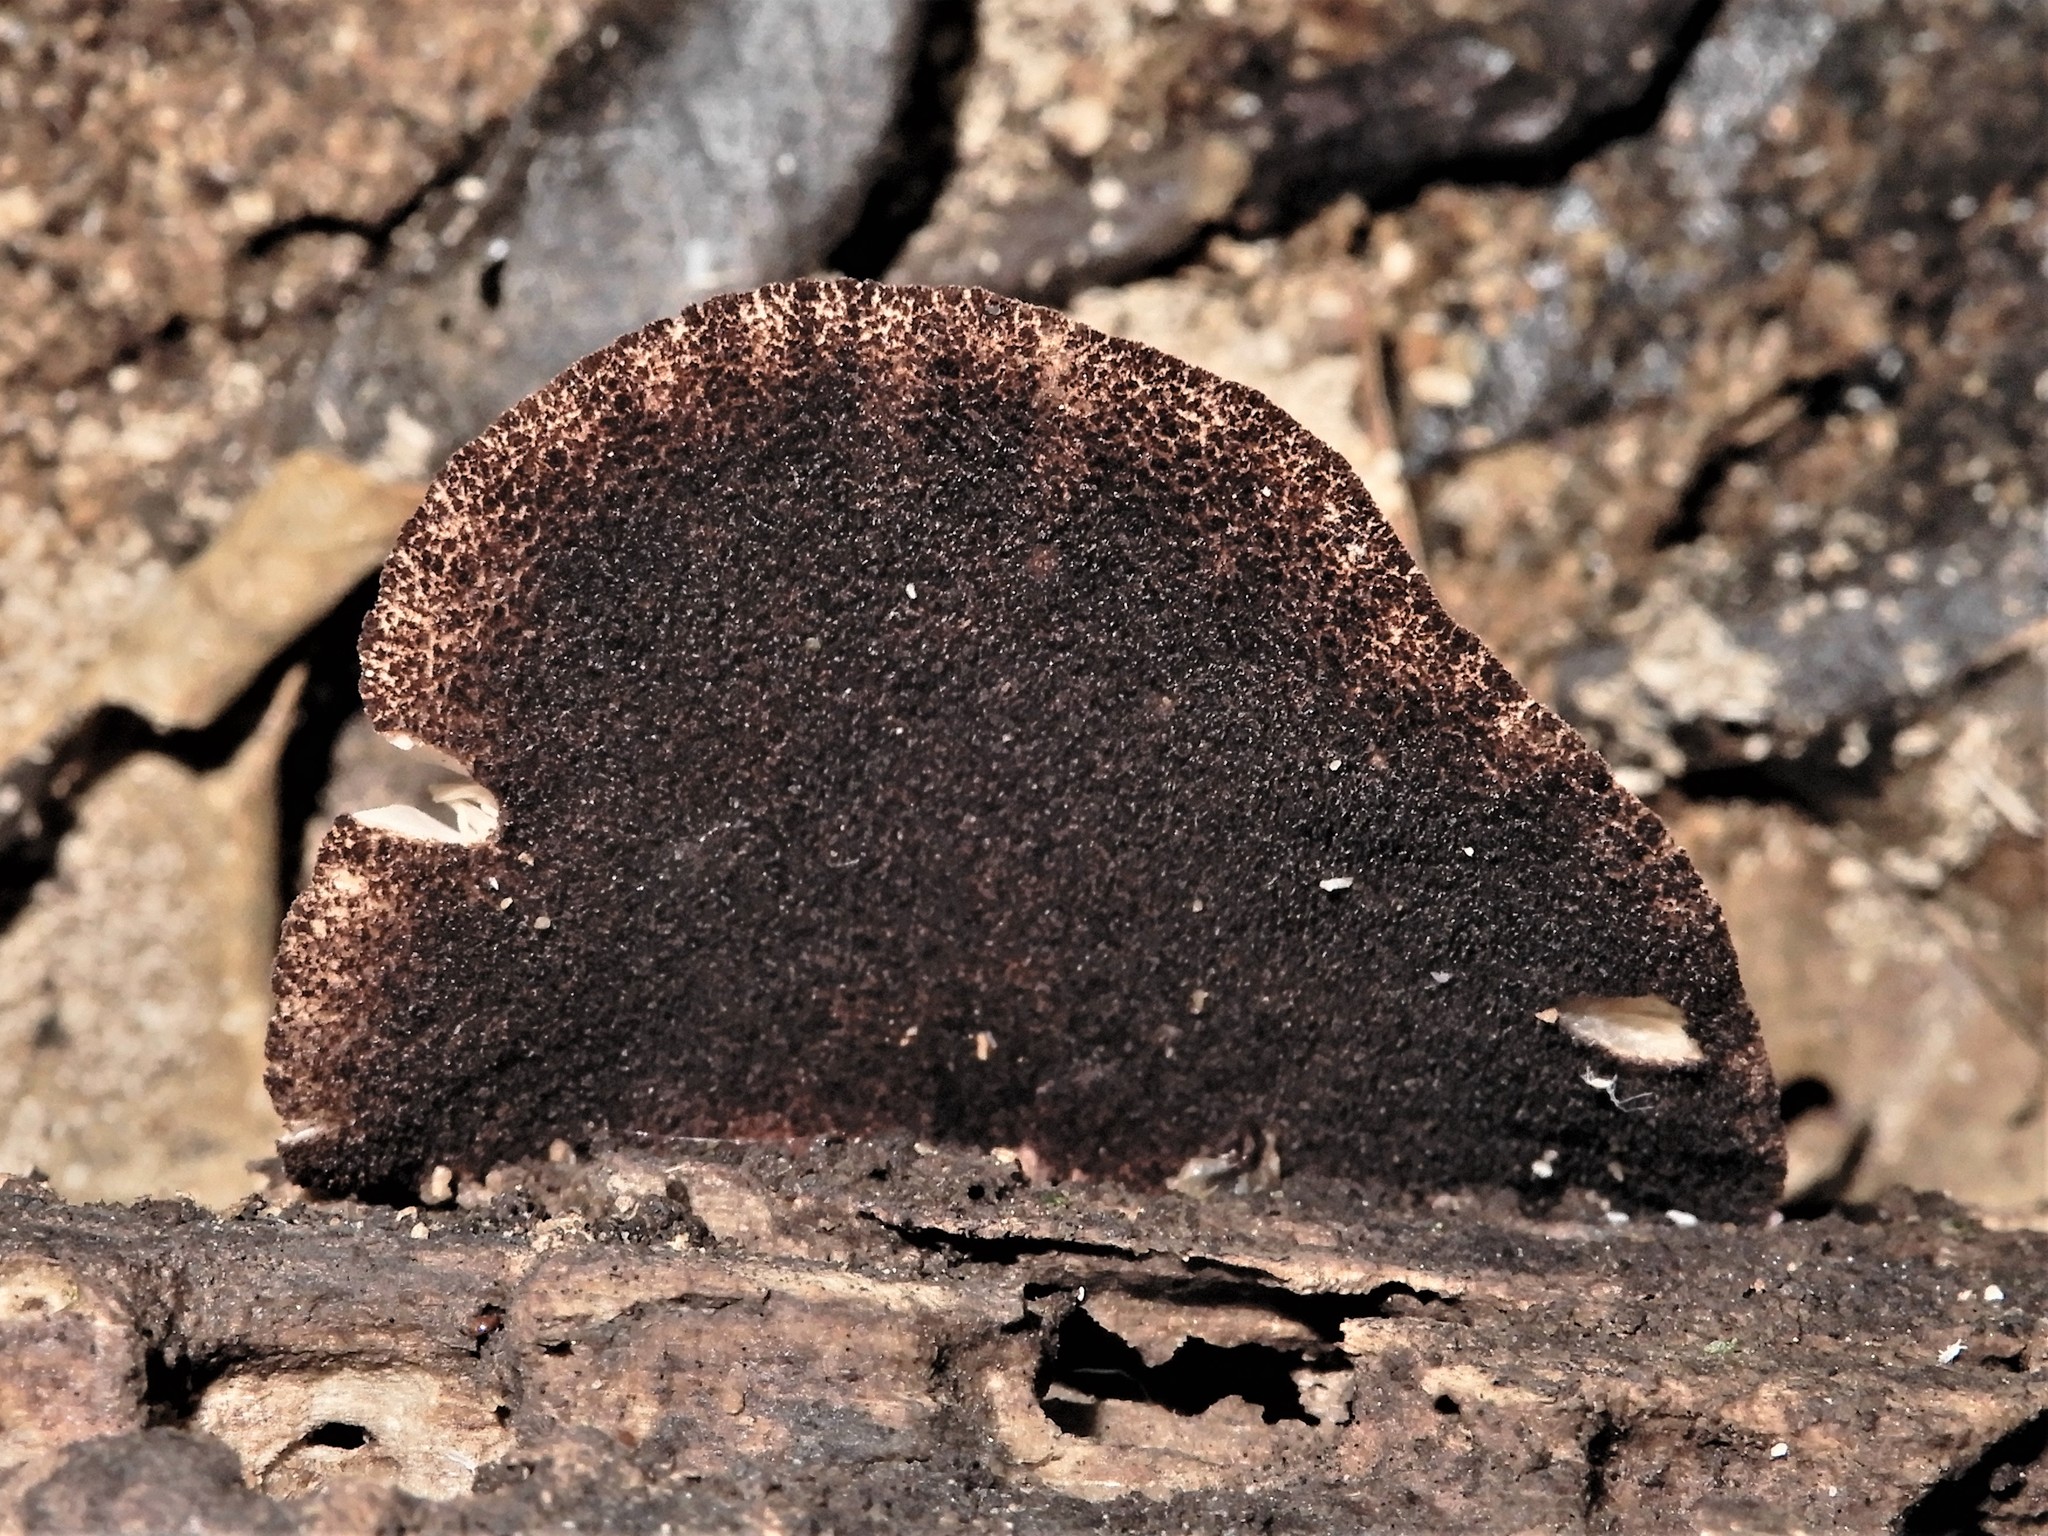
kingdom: Fungi
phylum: Basidiomycota
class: Agaricomycetes
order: Agaricales
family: Crepidotaceae
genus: Crepidotus
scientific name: Crepidotus fuscovelutinus
